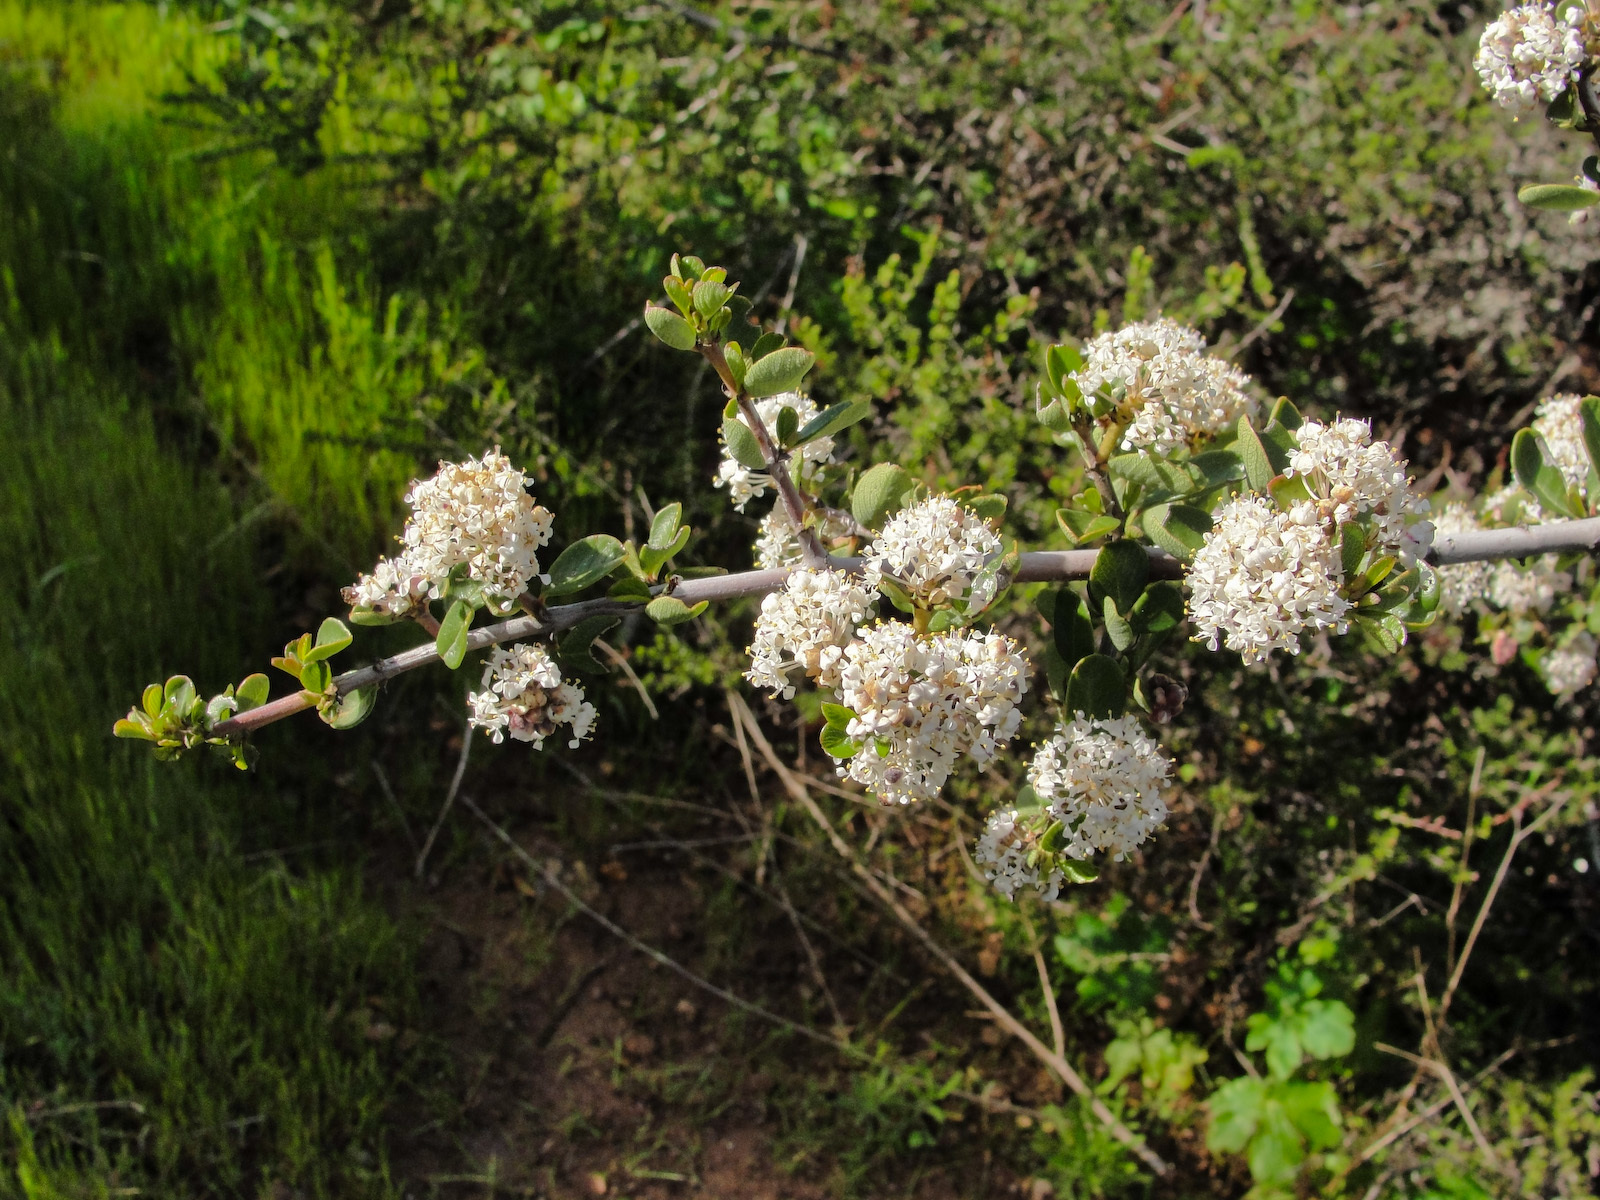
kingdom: Plantae
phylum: Tracheophyta
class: Magnoliopsida
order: Rosales
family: Rhamnaceae
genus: Ceanothus
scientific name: Ceanothus cuneatus
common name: Cuneate ceanothus
